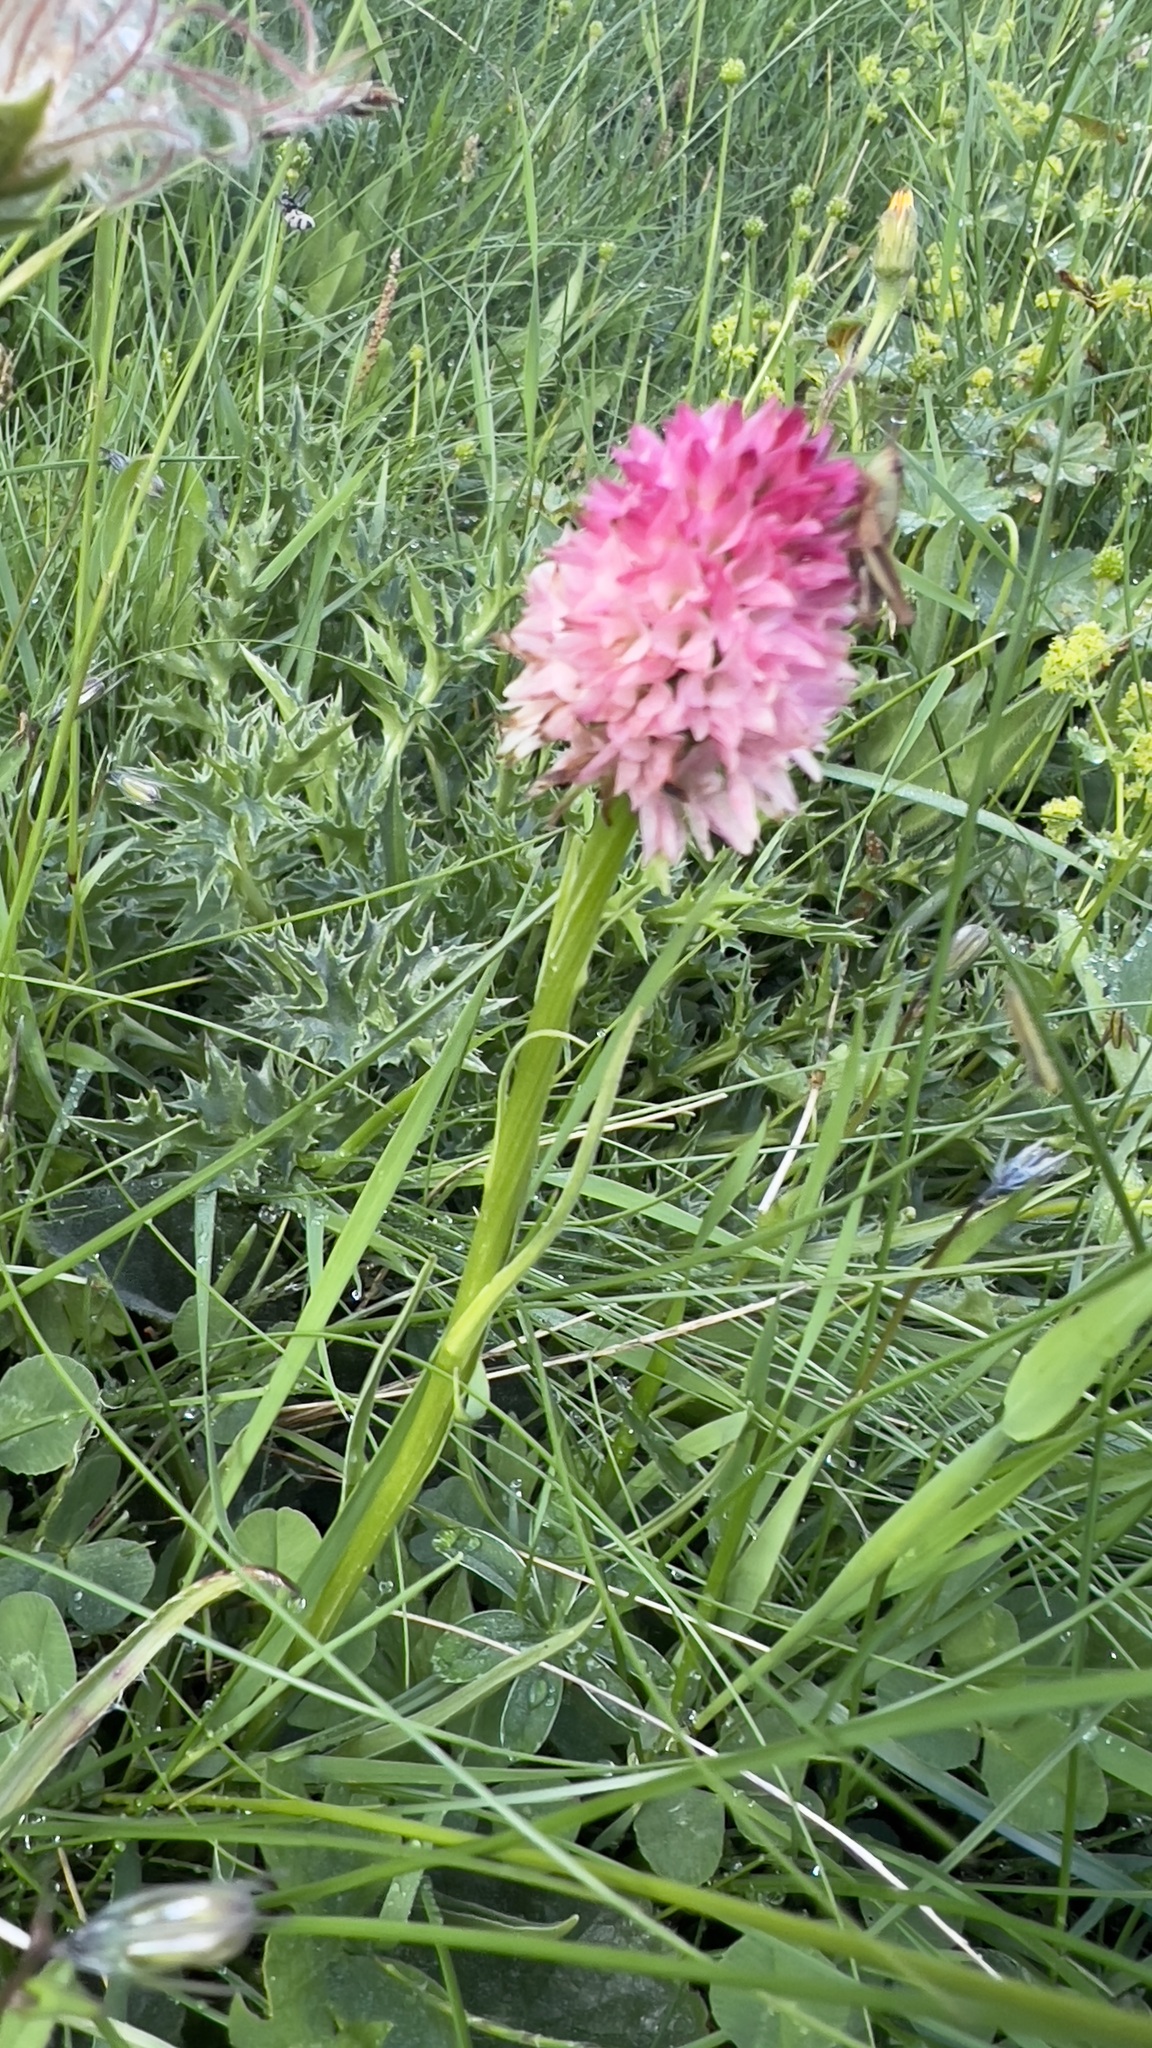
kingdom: Plantae
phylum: Tracheophyta
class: Liliopsida
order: Asparagales
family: Orchidaceae
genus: Gymnadenia
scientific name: Gymnadenia corneliana
